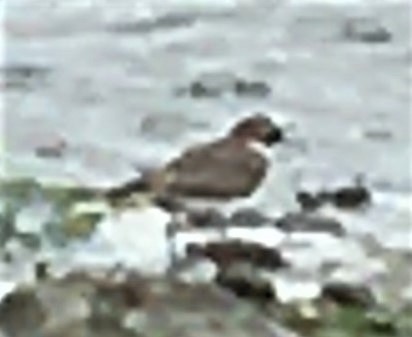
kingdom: Animalia
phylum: Chordata
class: Aves
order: Charadriiformes
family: Charadriidae
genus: Charadrius
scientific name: Charadrius semipalmatus
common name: Semipalmated plover
